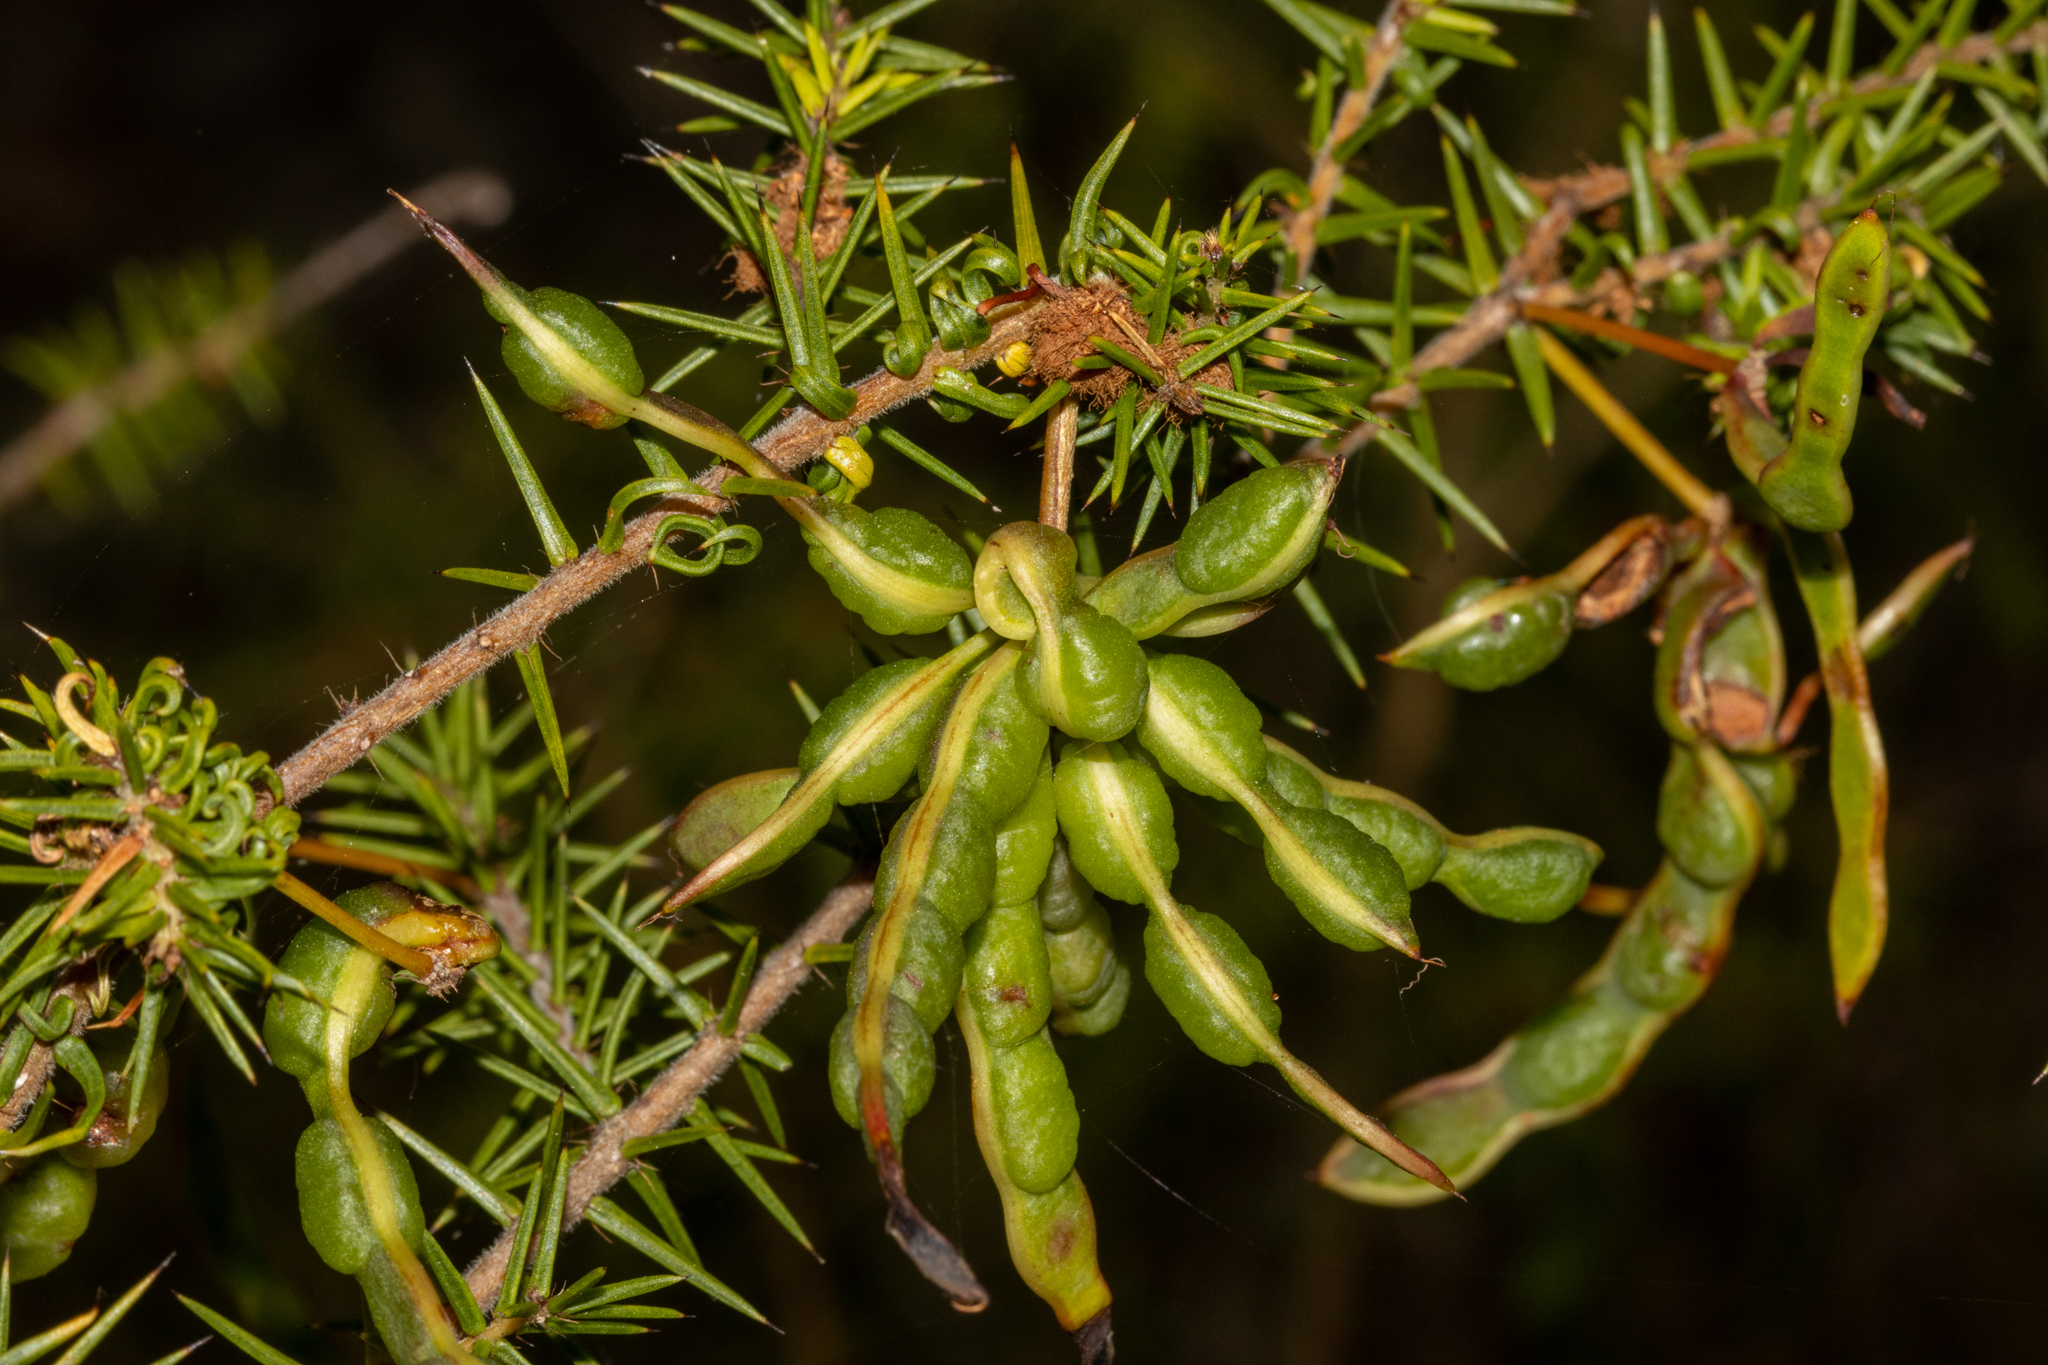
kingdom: Plantae
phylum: Tracheophyta
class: Magnoliopsida
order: Fabales
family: Fabaceae
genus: Acacia
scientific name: Acacia ulicifolia
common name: Juniper wattle
